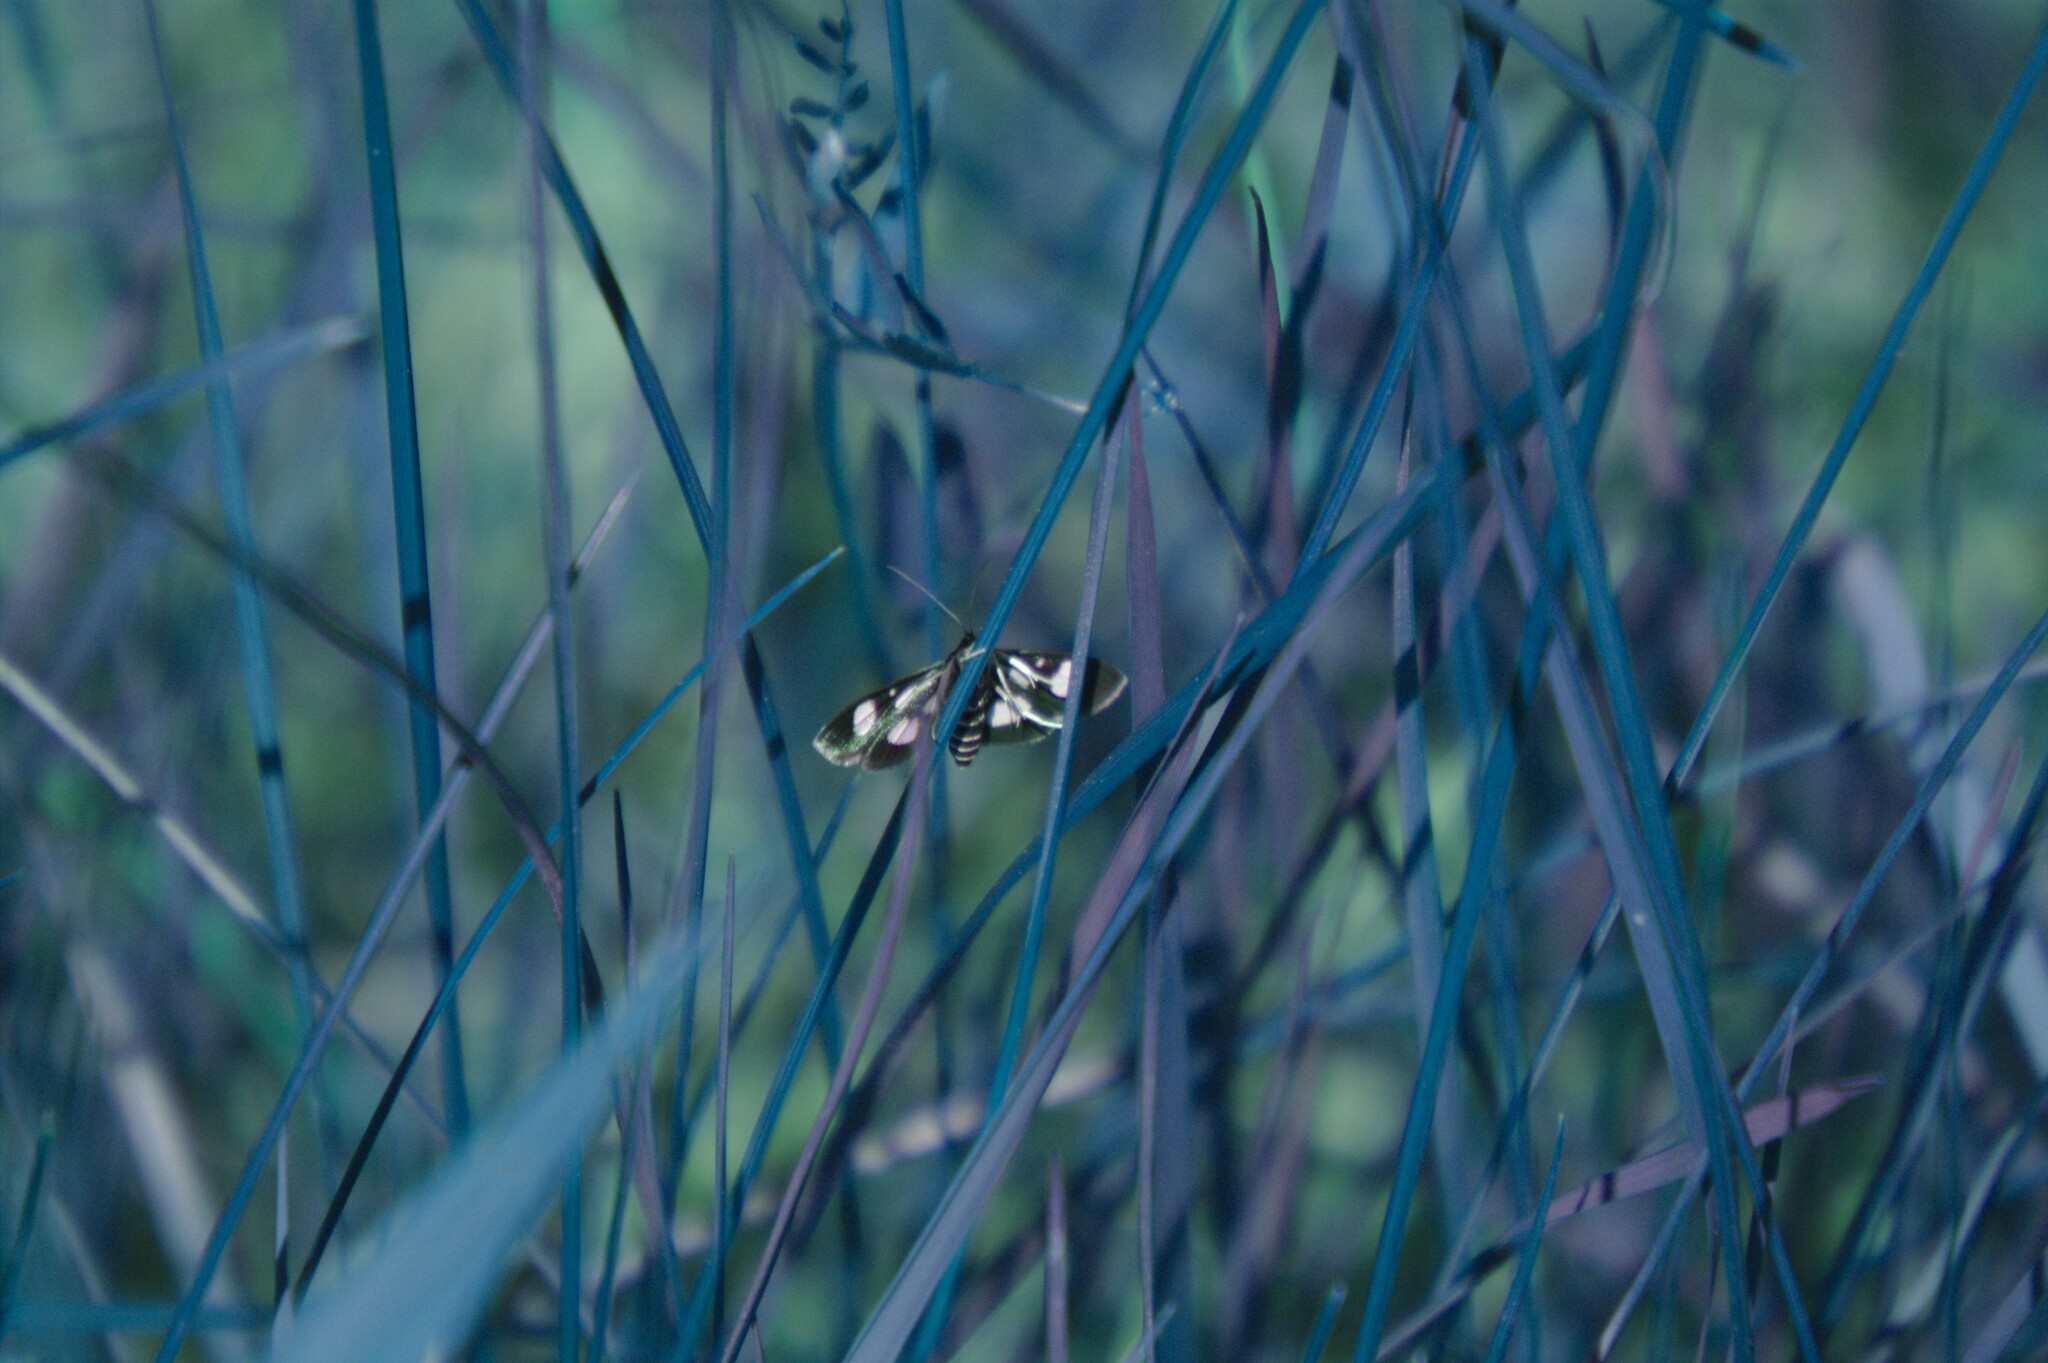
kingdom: Animalia
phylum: Arthropoda
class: Insecta
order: Lepidoptera
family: Crambidae
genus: Anania
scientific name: Anania funebris
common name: White-spotted sable moth
